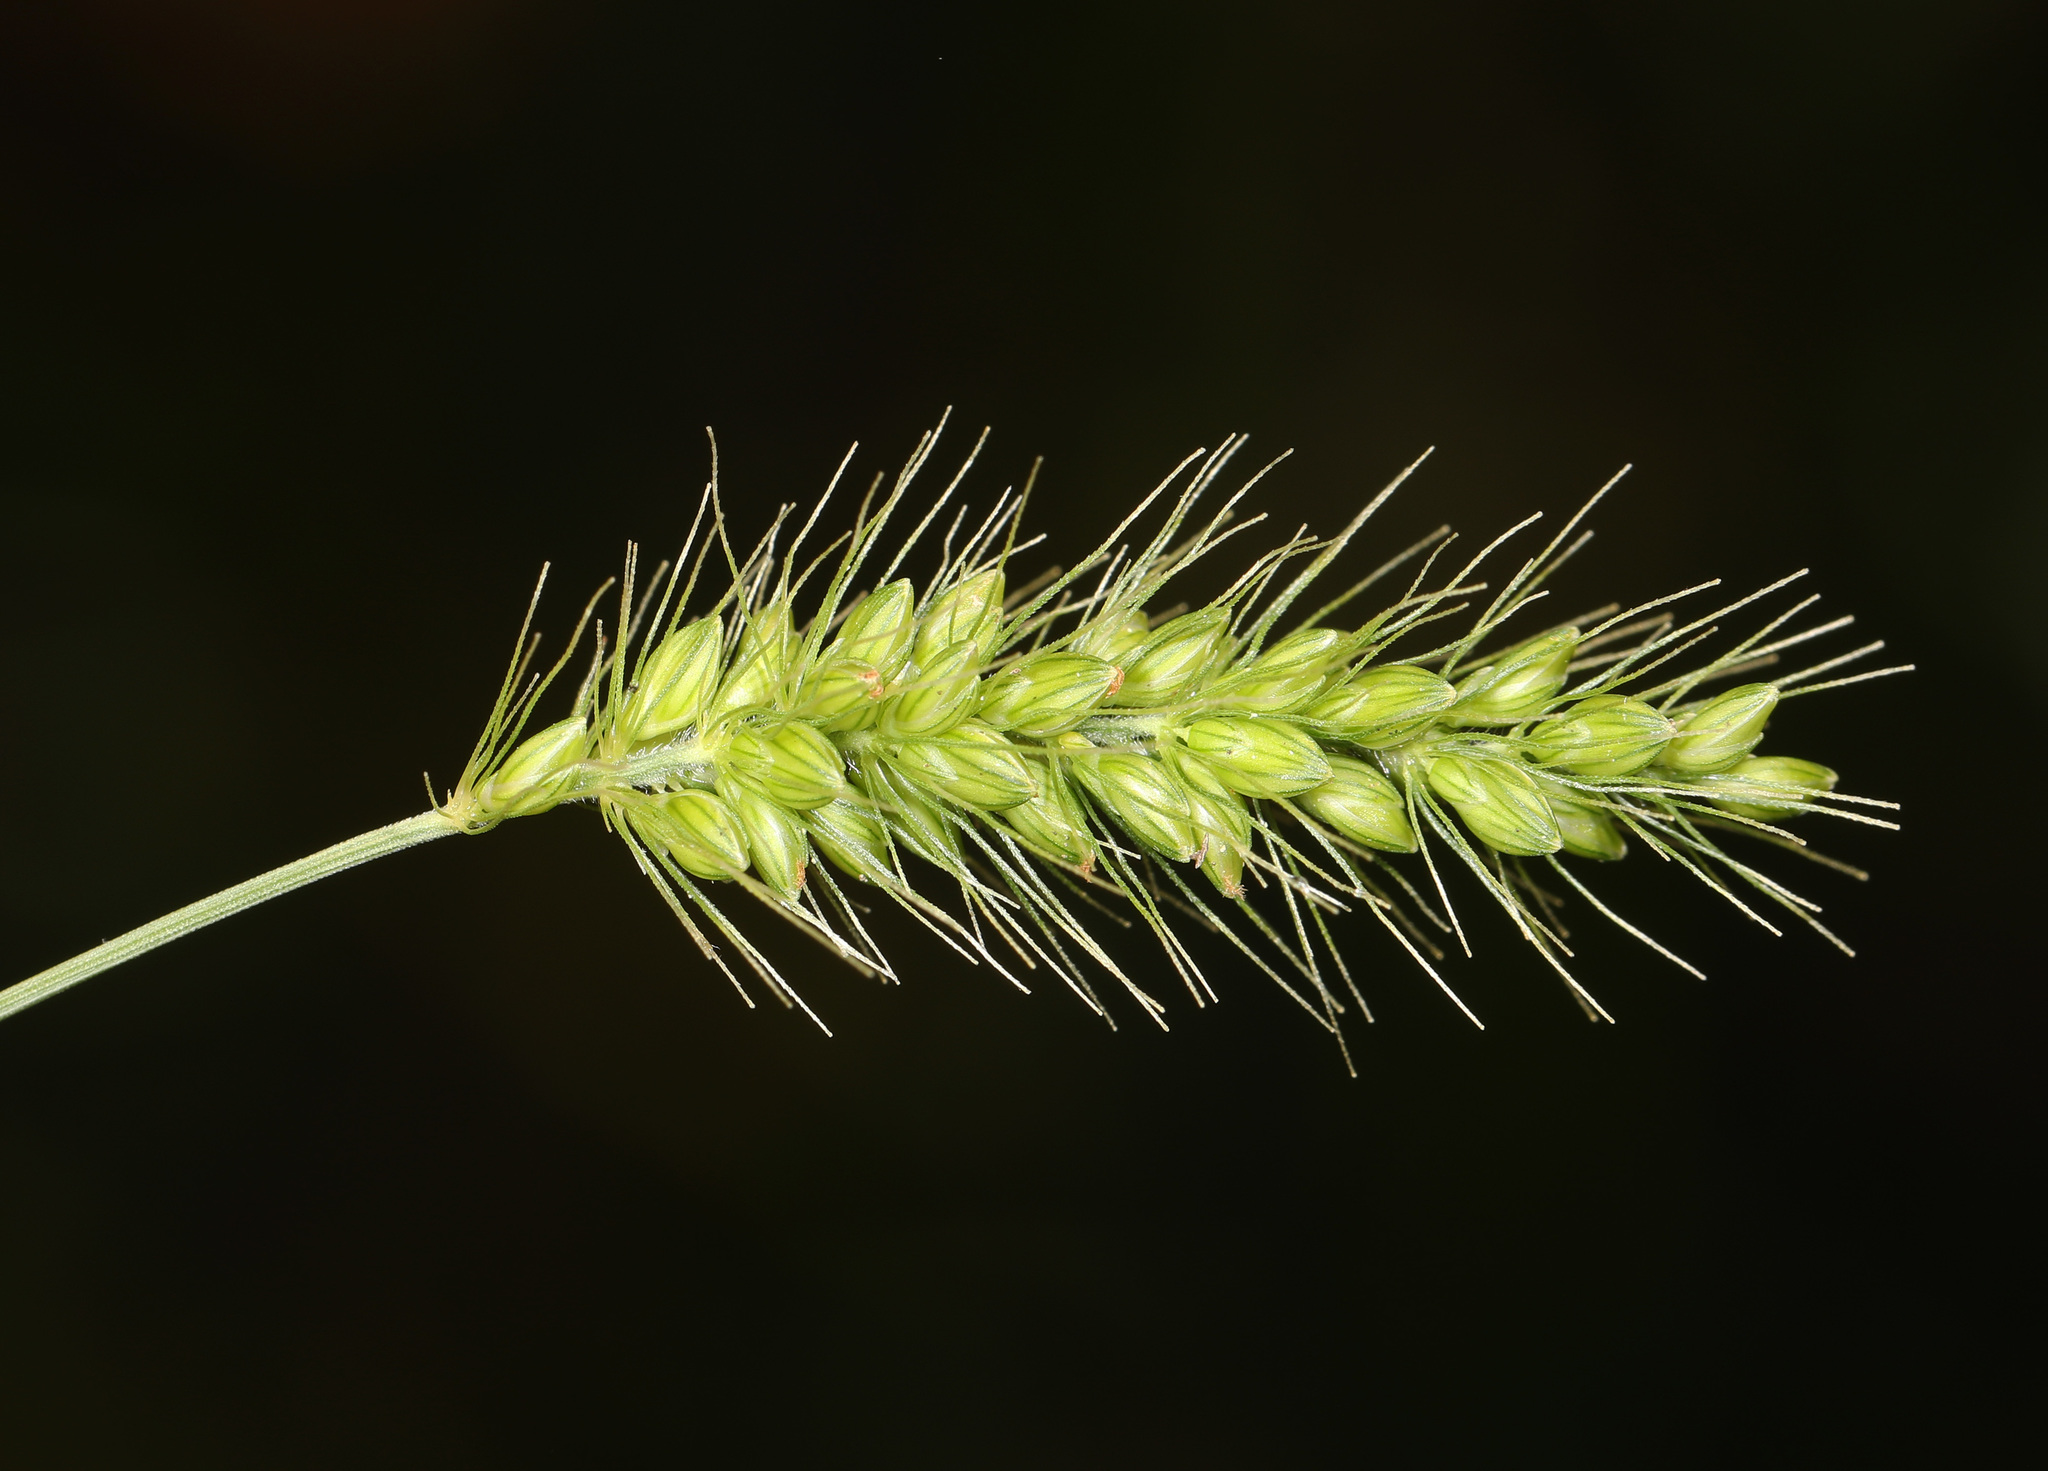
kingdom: Plantae
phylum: Tracheophyta
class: Liliopsida
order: Poales
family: Poaceae
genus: Setaria
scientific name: Setaria faberi
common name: Nodding bristle-grass
